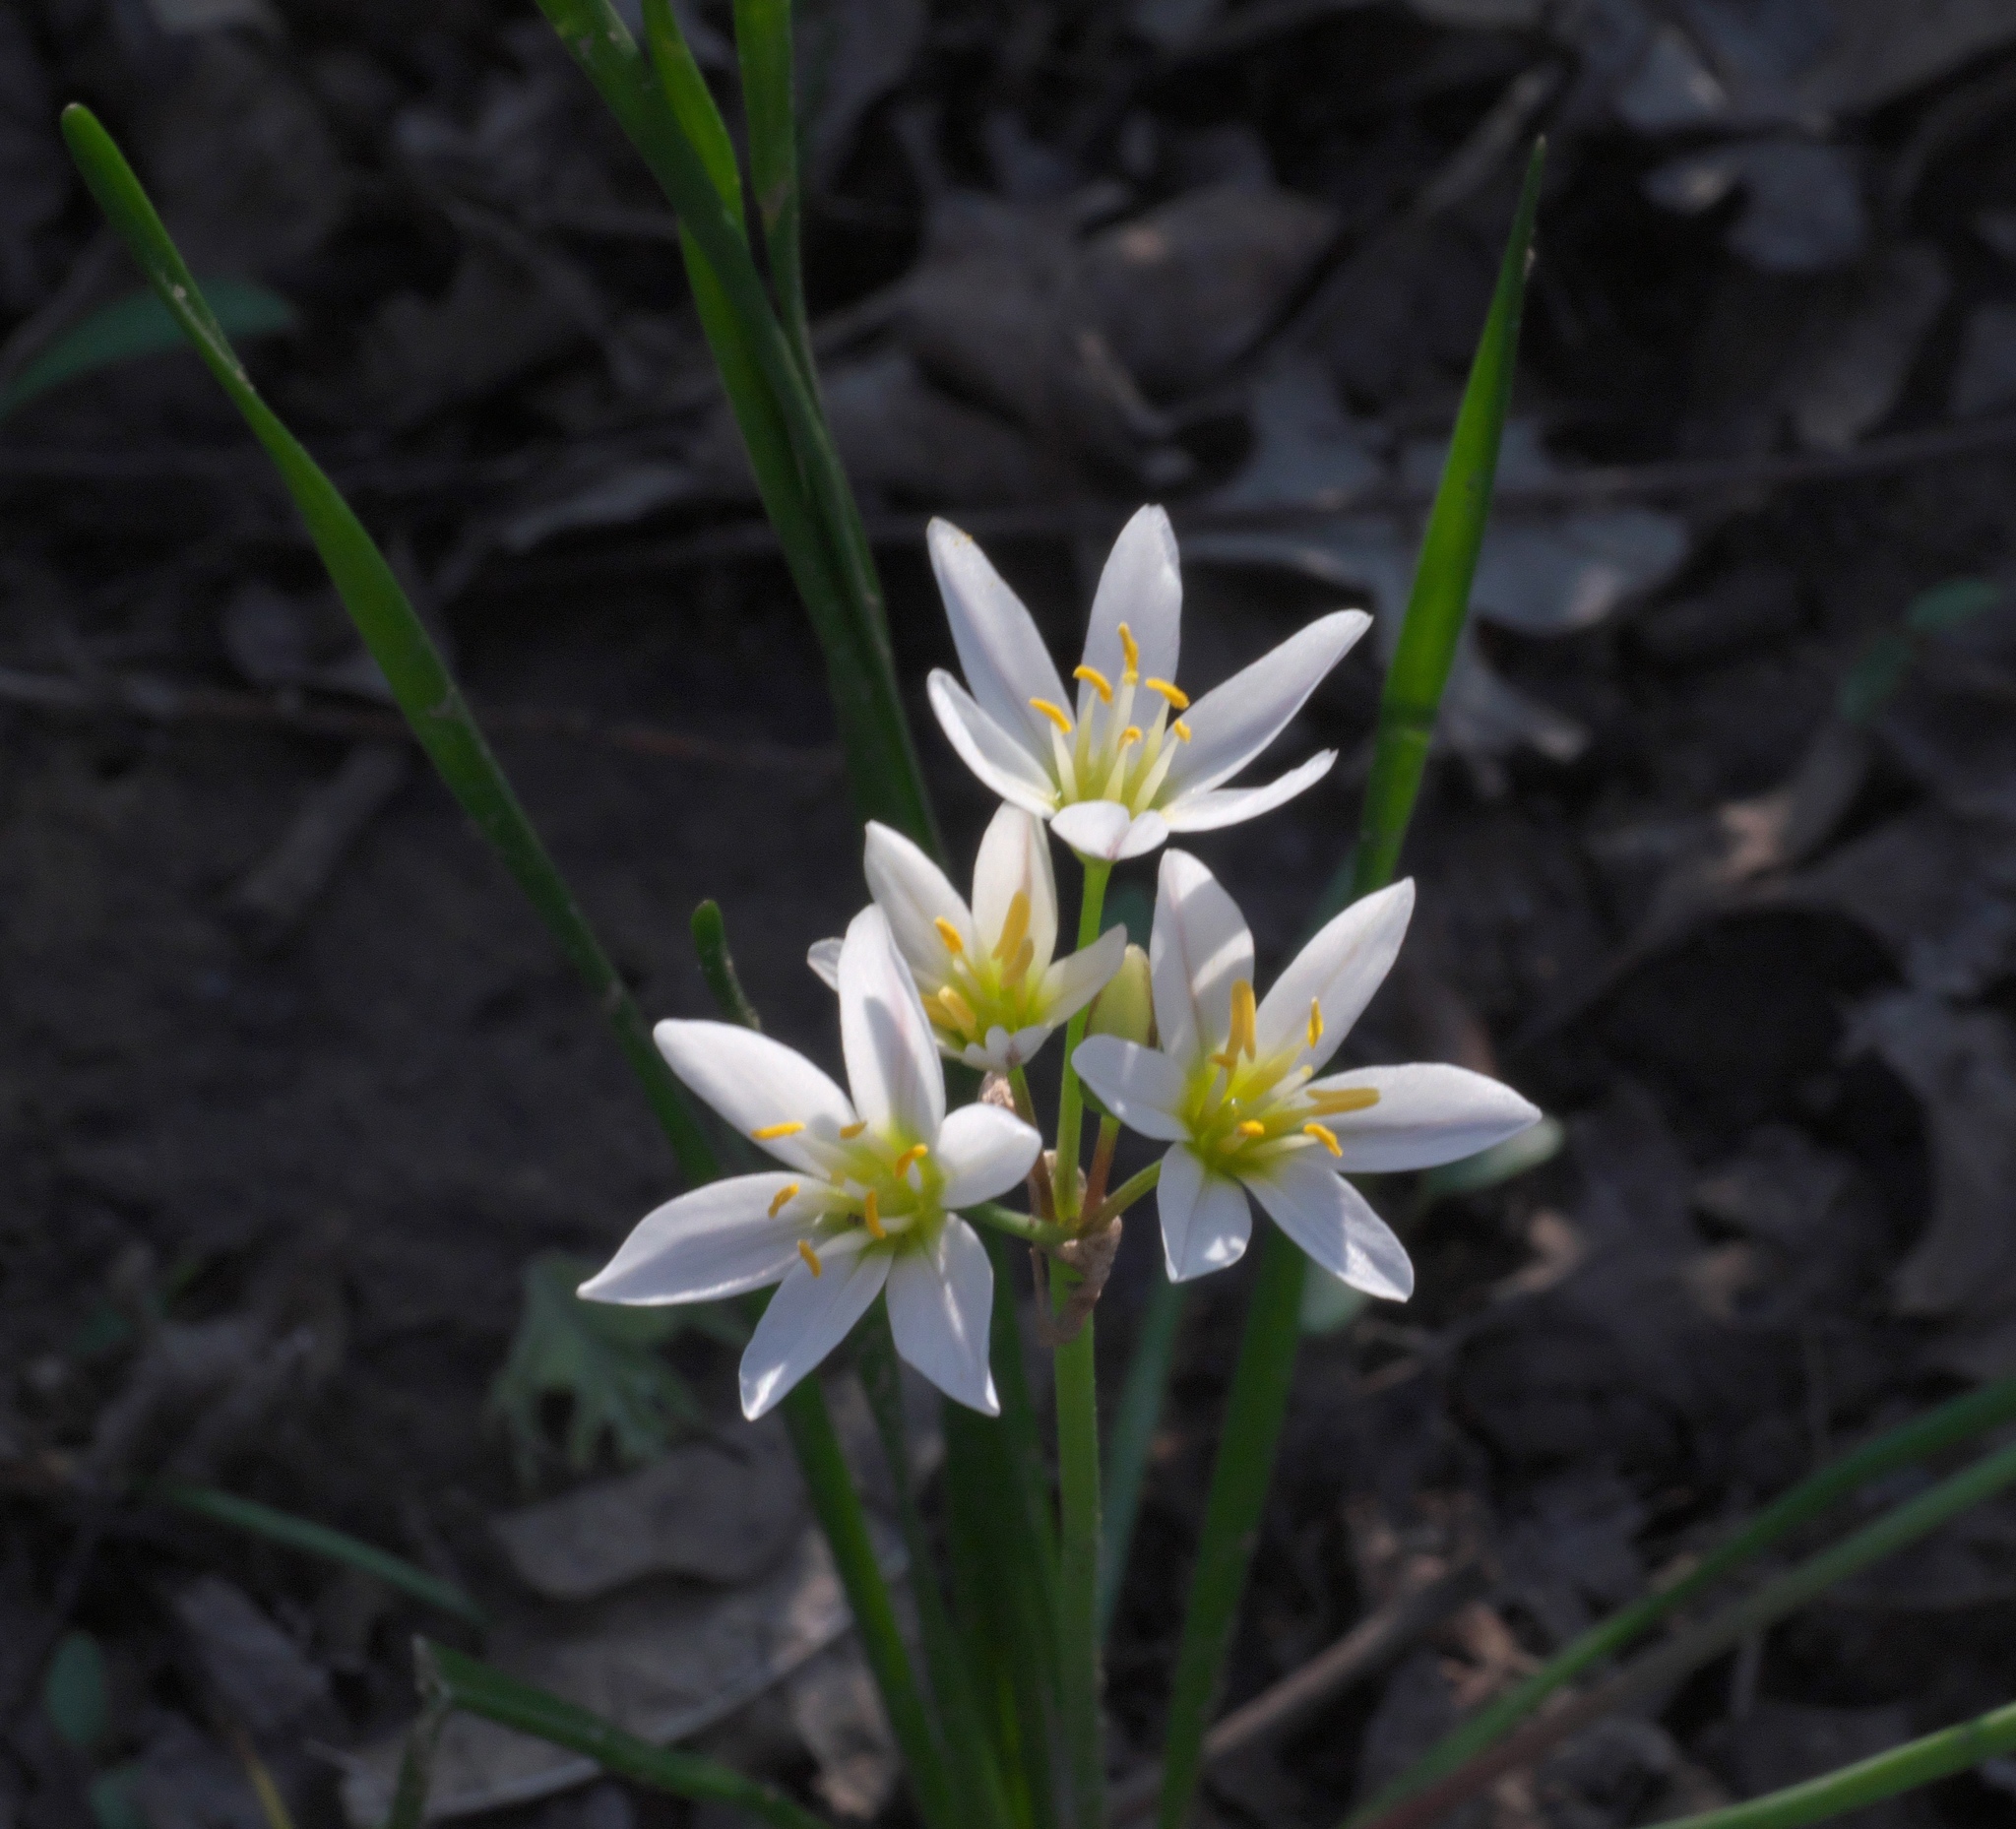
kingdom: Plantae
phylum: Tracheophyta
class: Liliopsida
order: Asparagales
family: Amaryllidaceae
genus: Nothoscordum
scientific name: Nothoscordum bivalve
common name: Crow-poison
